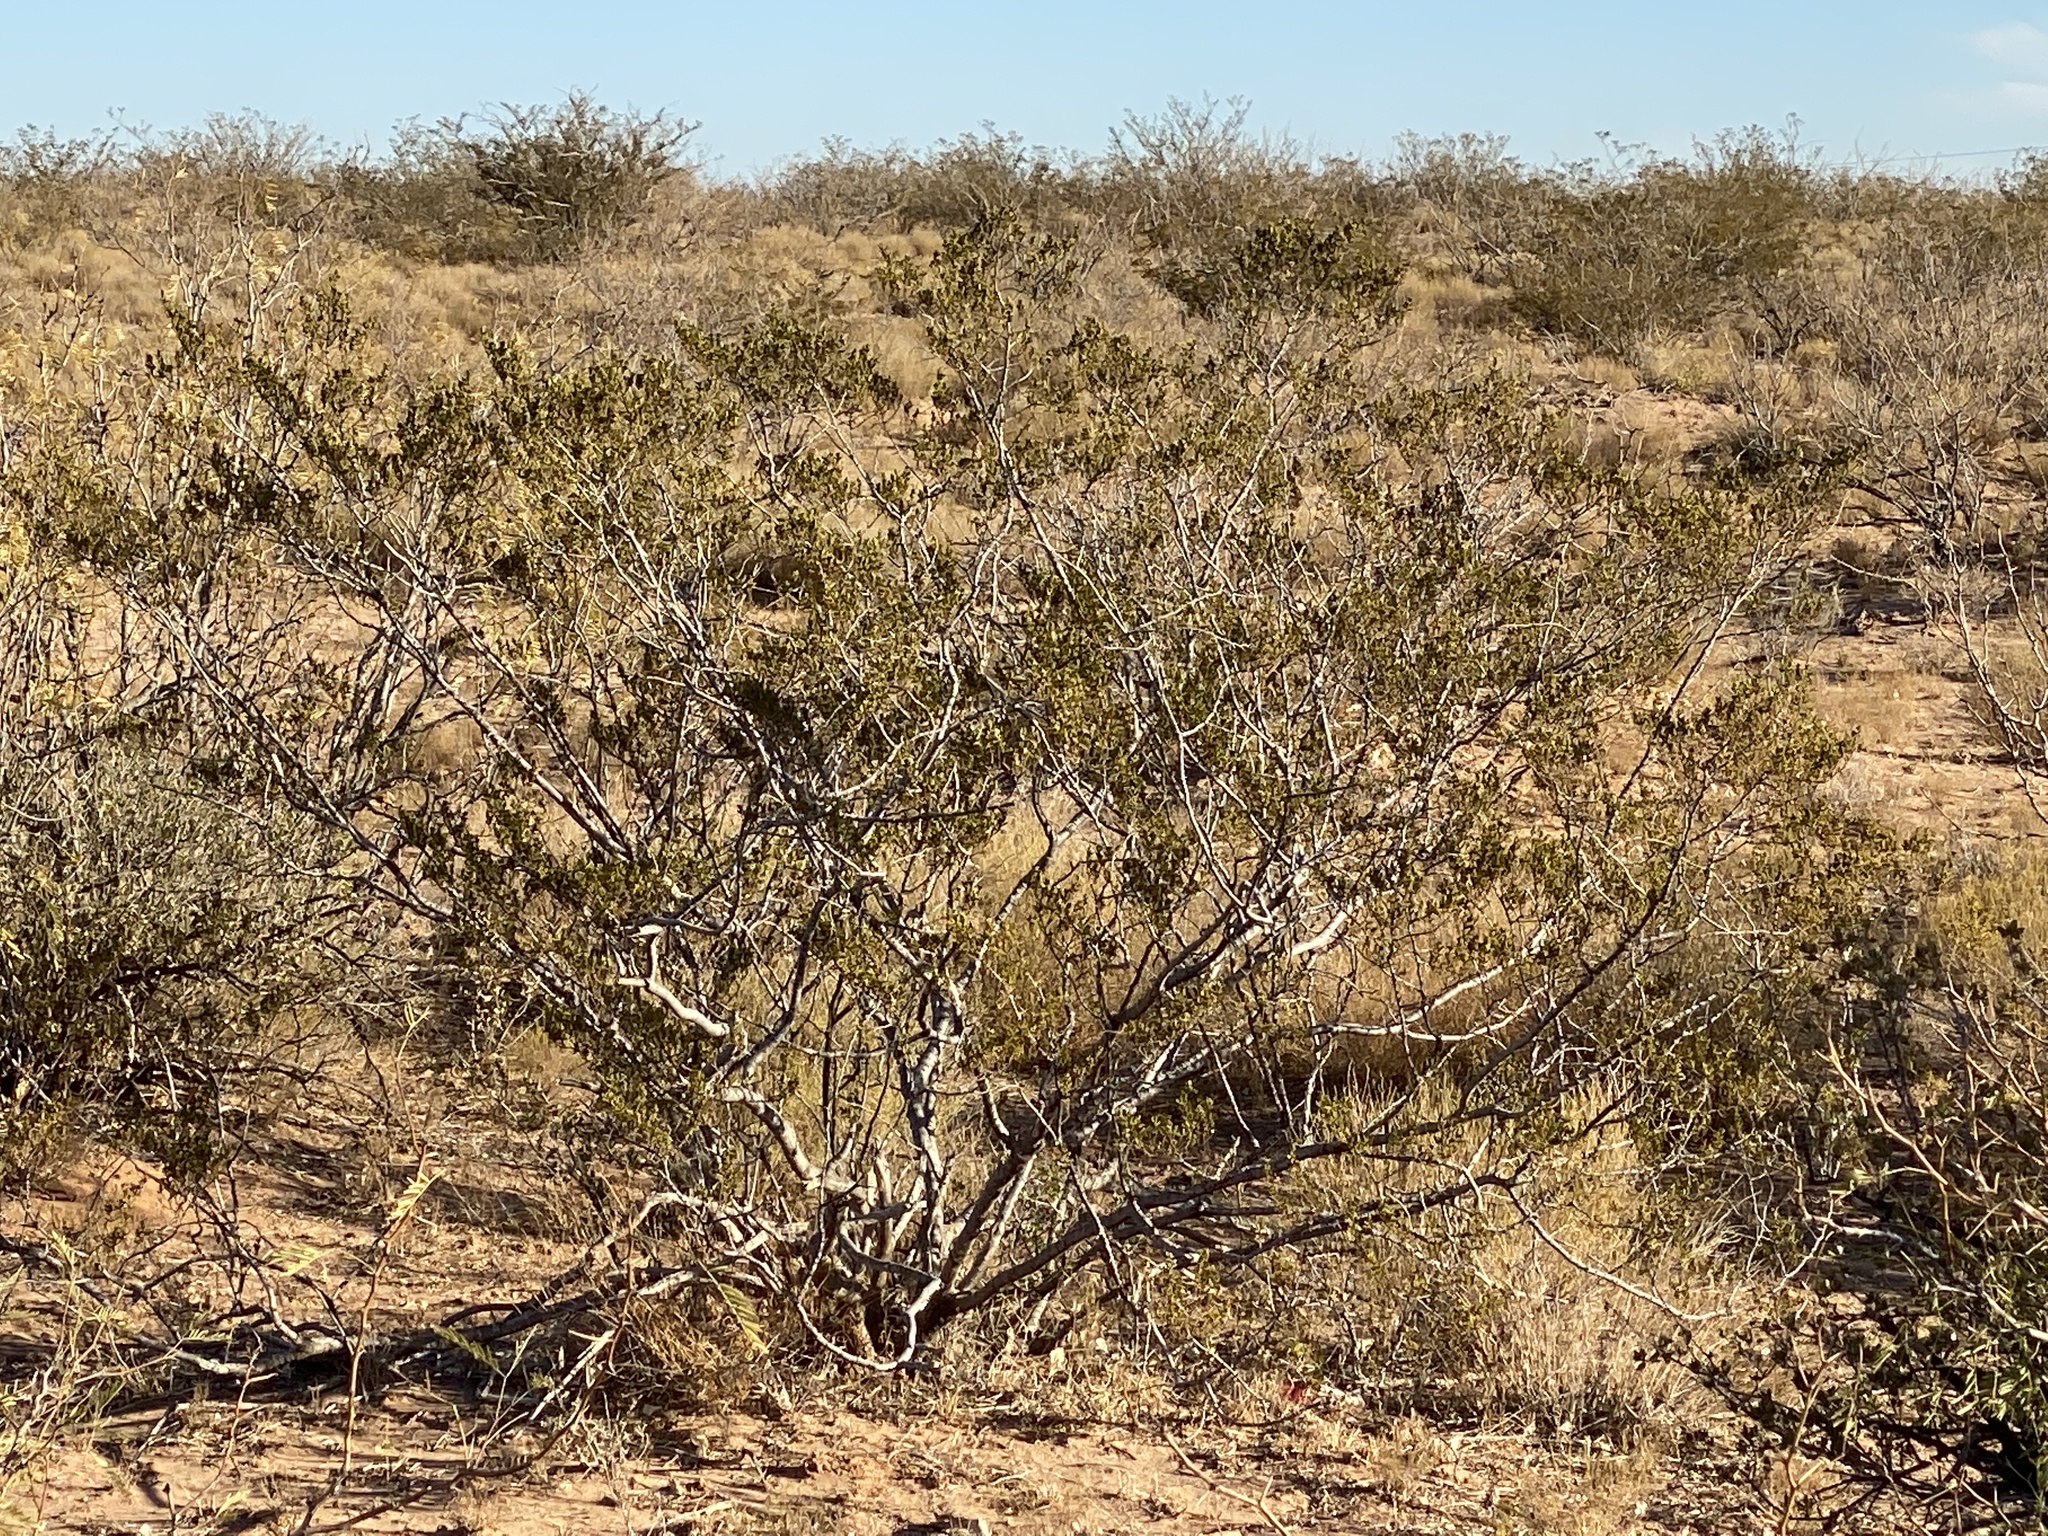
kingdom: Plantae
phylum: Tracheophyta
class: Magnoliopsida
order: Zygophyllales
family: Zygophyllaceae
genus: Larrea
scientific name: Larrea tridentata
